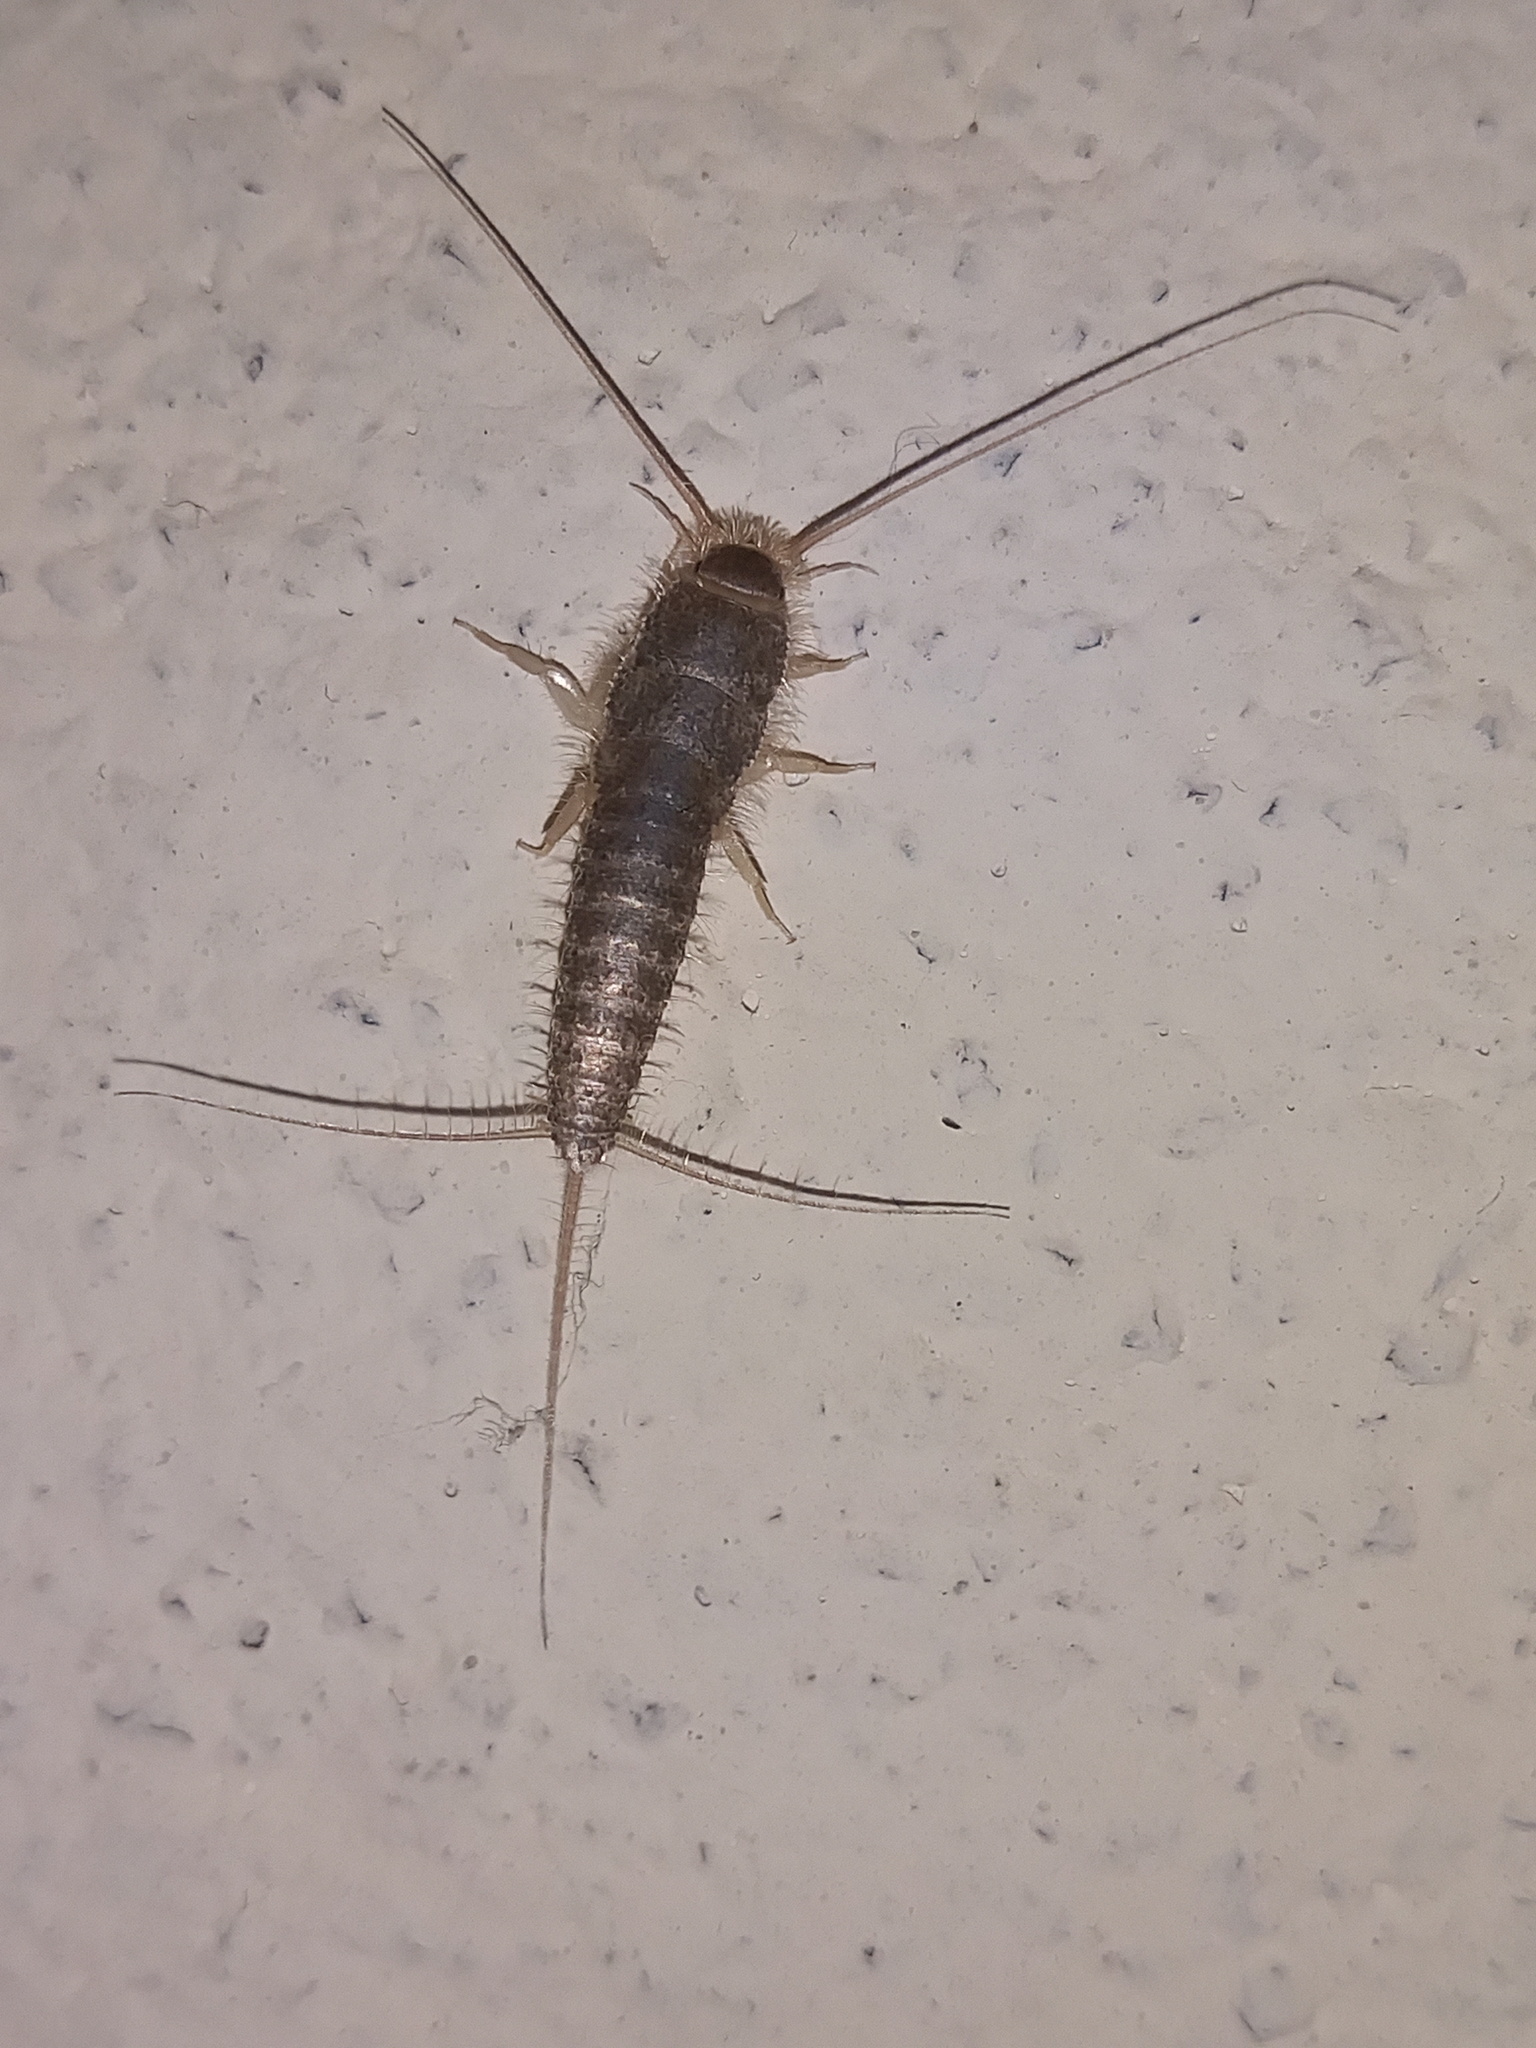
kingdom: Animalia
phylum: Arthropoda
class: Insecta
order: Zygentoma
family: Lepismatidae
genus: Ctenolepisma
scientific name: Ctenolepisma longicaudatum
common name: Silverfish
